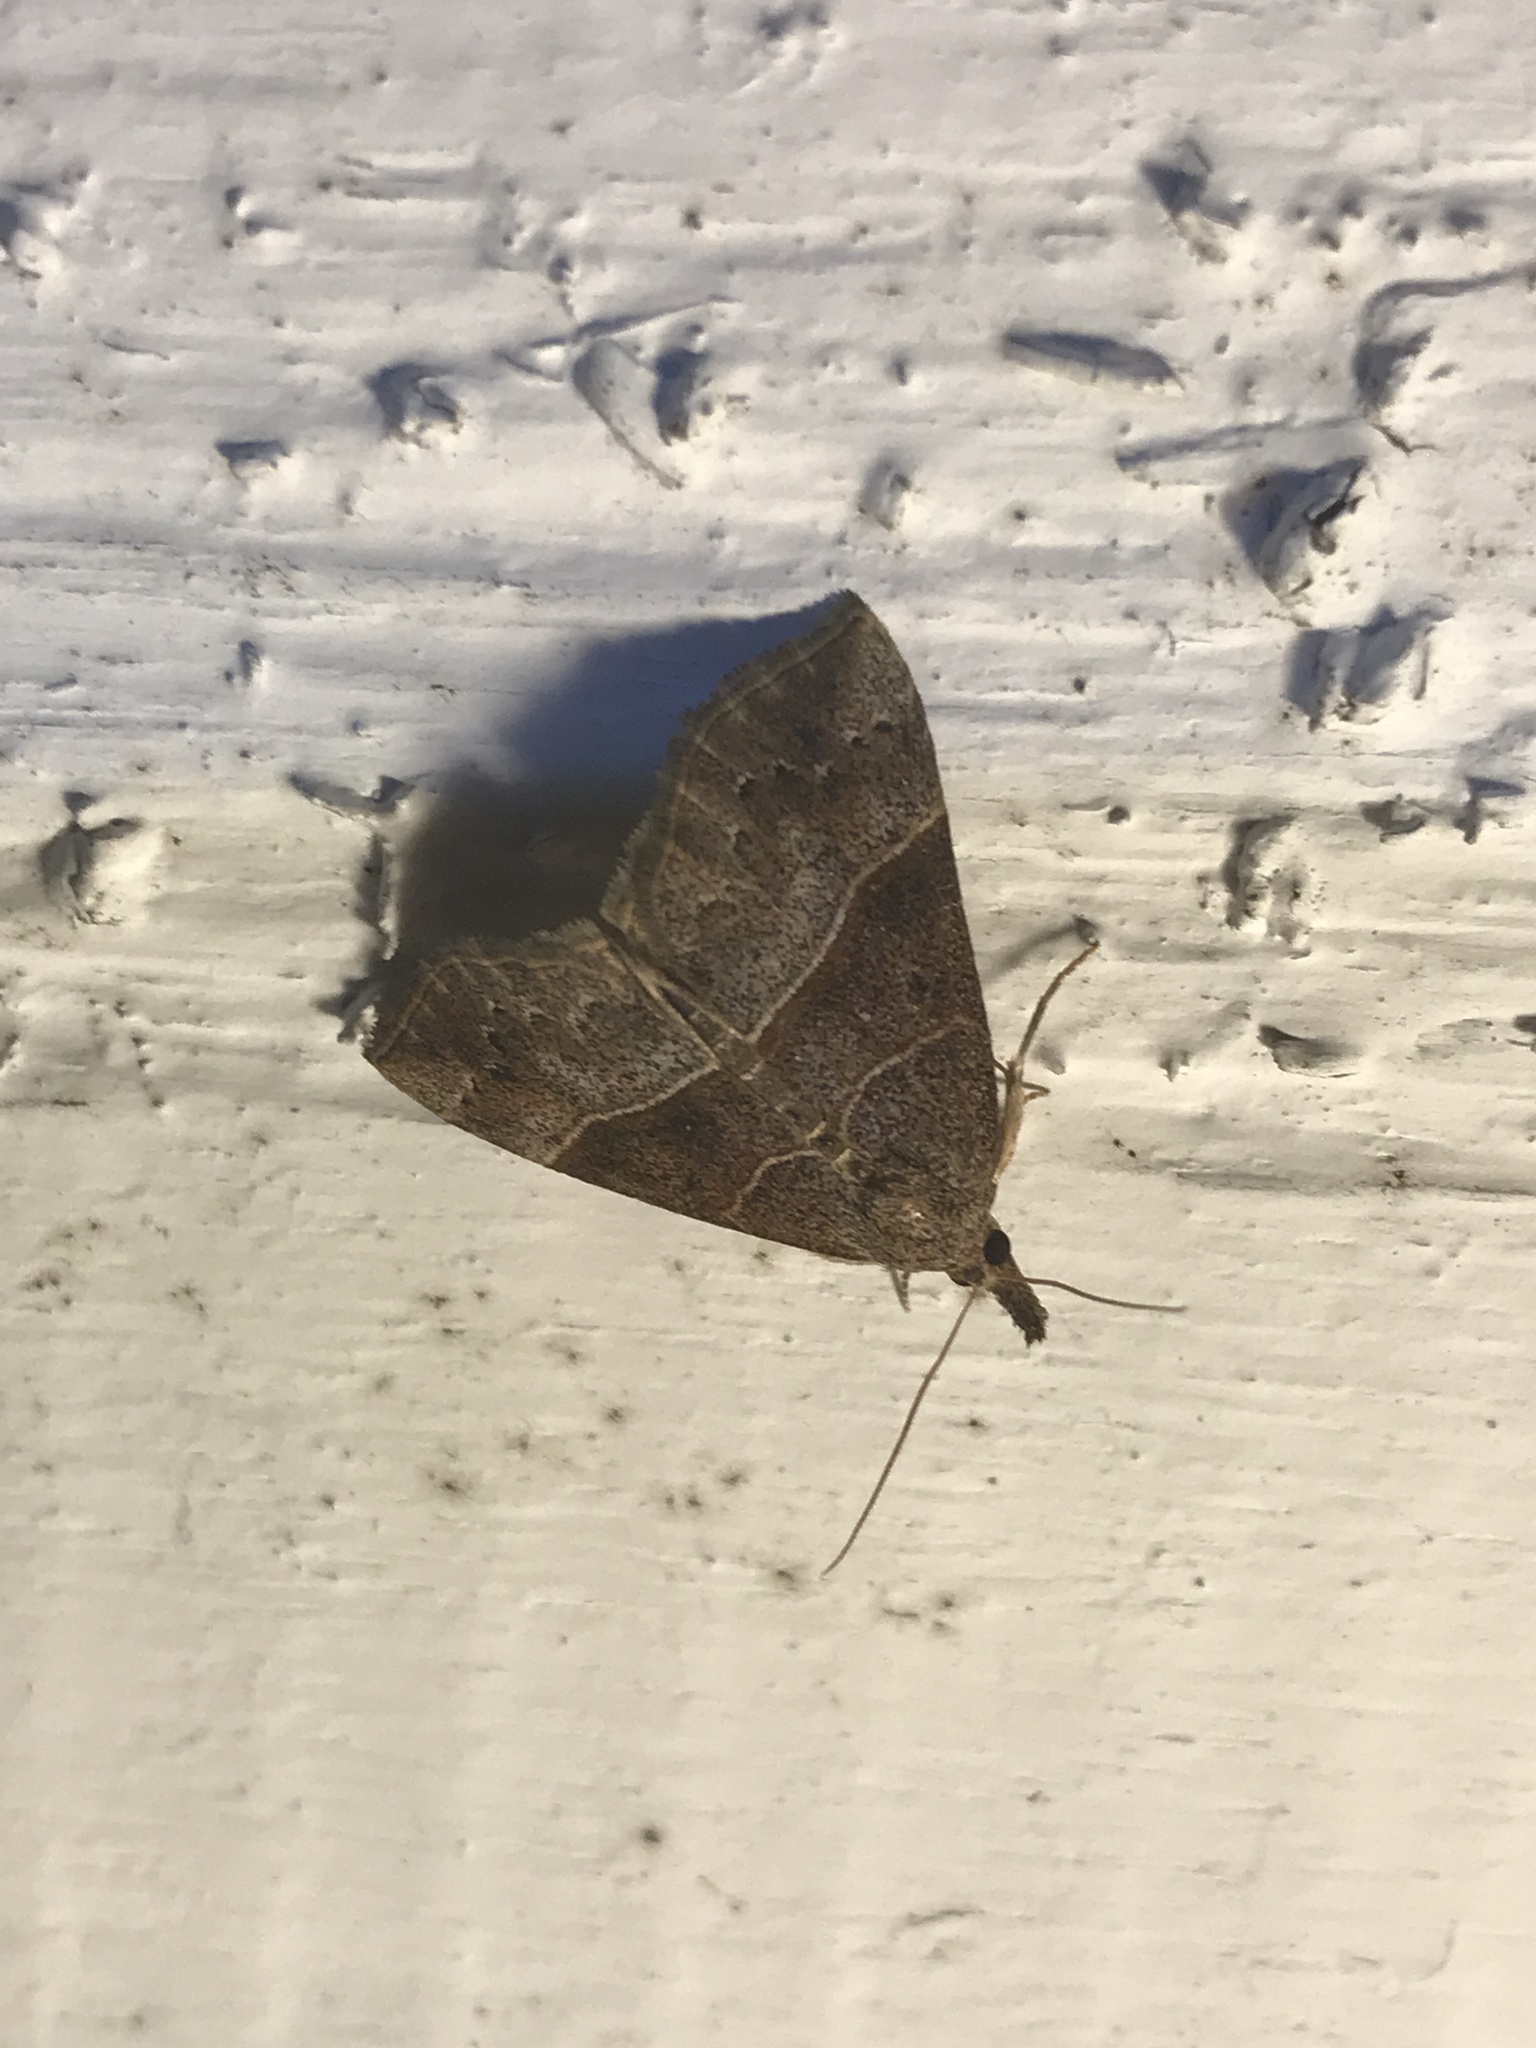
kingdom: Animalia
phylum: Arthropoda
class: Insecta
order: Lepidoptera
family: Erebidae
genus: Hypena
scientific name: Hypena deceptalis
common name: Deceptive snout
